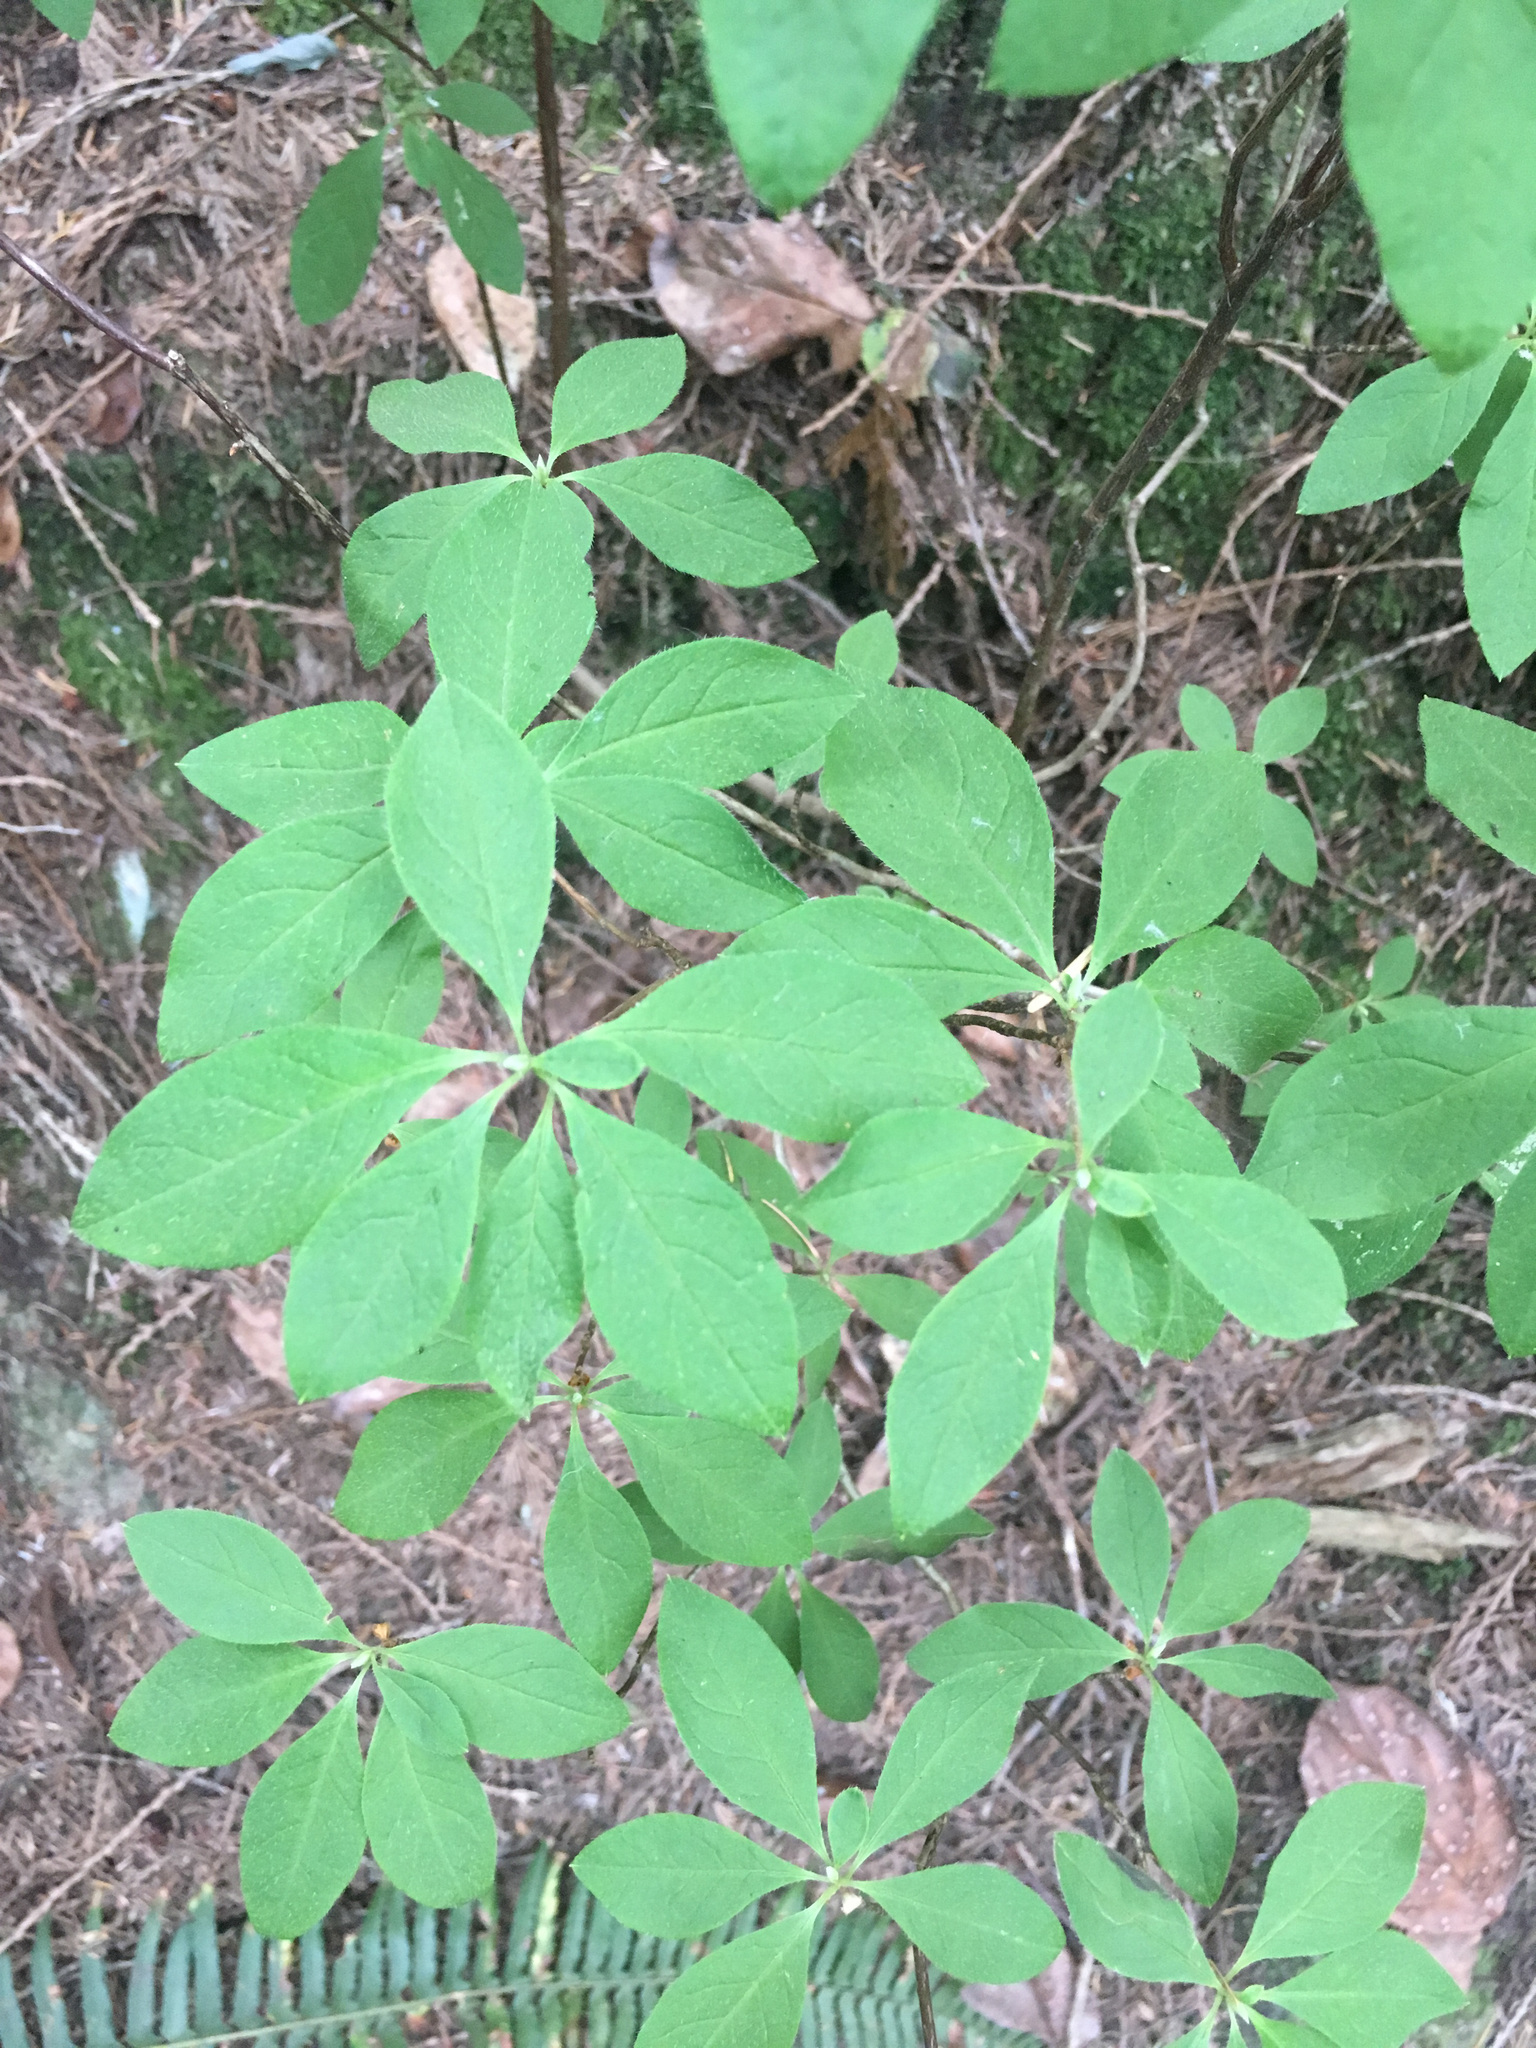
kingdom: Plantae
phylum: Tracheophyta
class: Magnoliopsida
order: Ericales
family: Ericaceae
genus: Rhododendron
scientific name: Rhododendron menziesii
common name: Pacific menziesia
